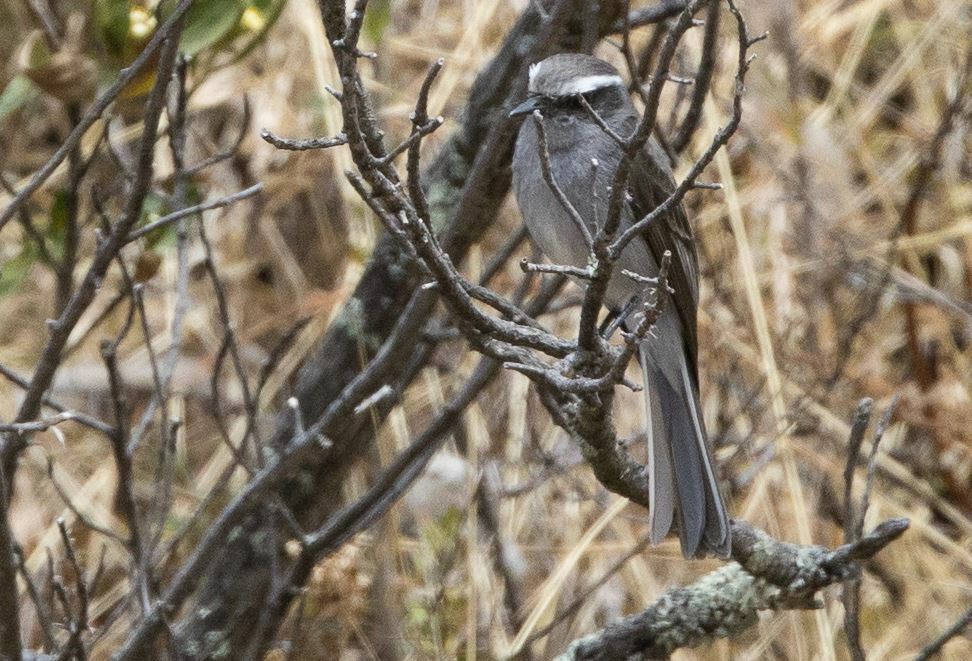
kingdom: Animalia
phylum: Chordata
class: Aves
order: Passeriformes
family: Tyrannidae
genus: Ochthoeca
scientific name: Ochthoeca leucophrys
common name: White-browed chat-tyrant
